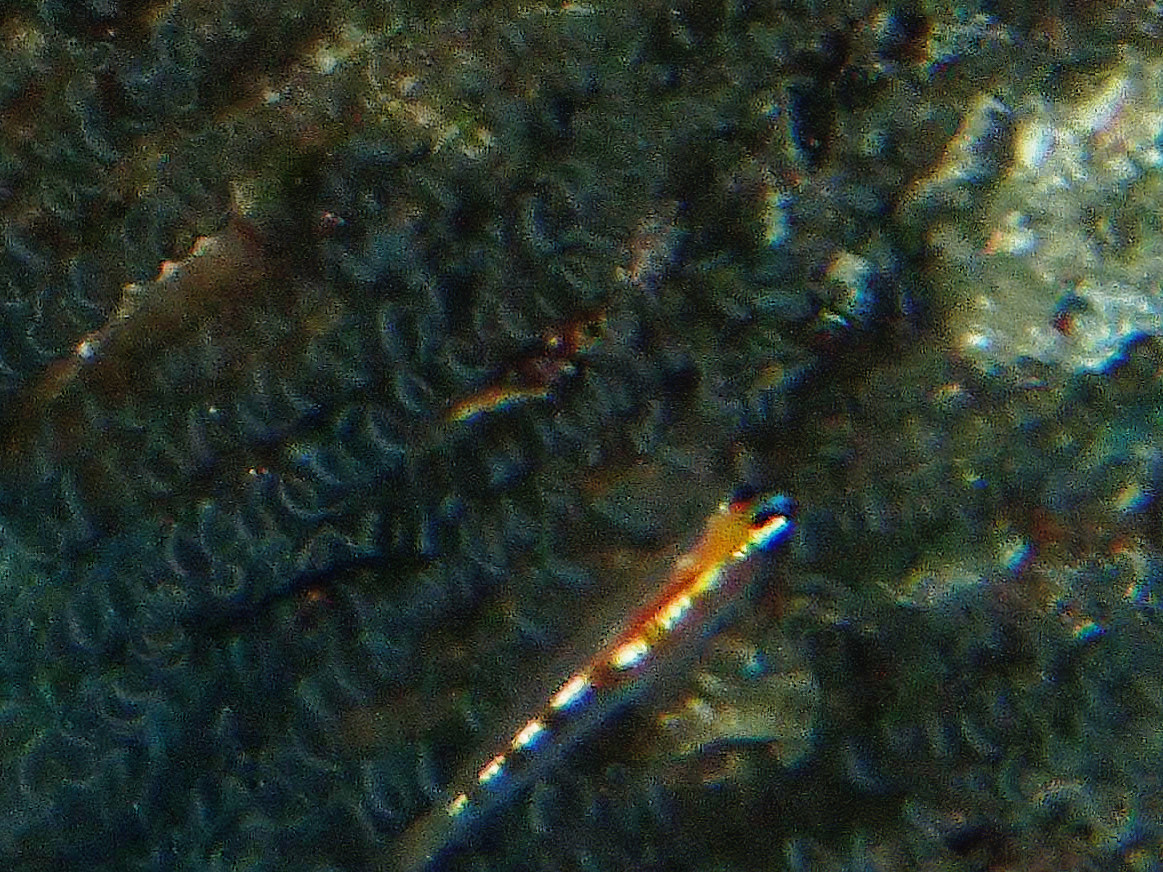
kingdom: Animalia
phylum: Chordata
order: Perciformes
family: Gobiidae
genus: Coryphopterus
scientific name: Coryphopterus personatus
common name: Masked goby
